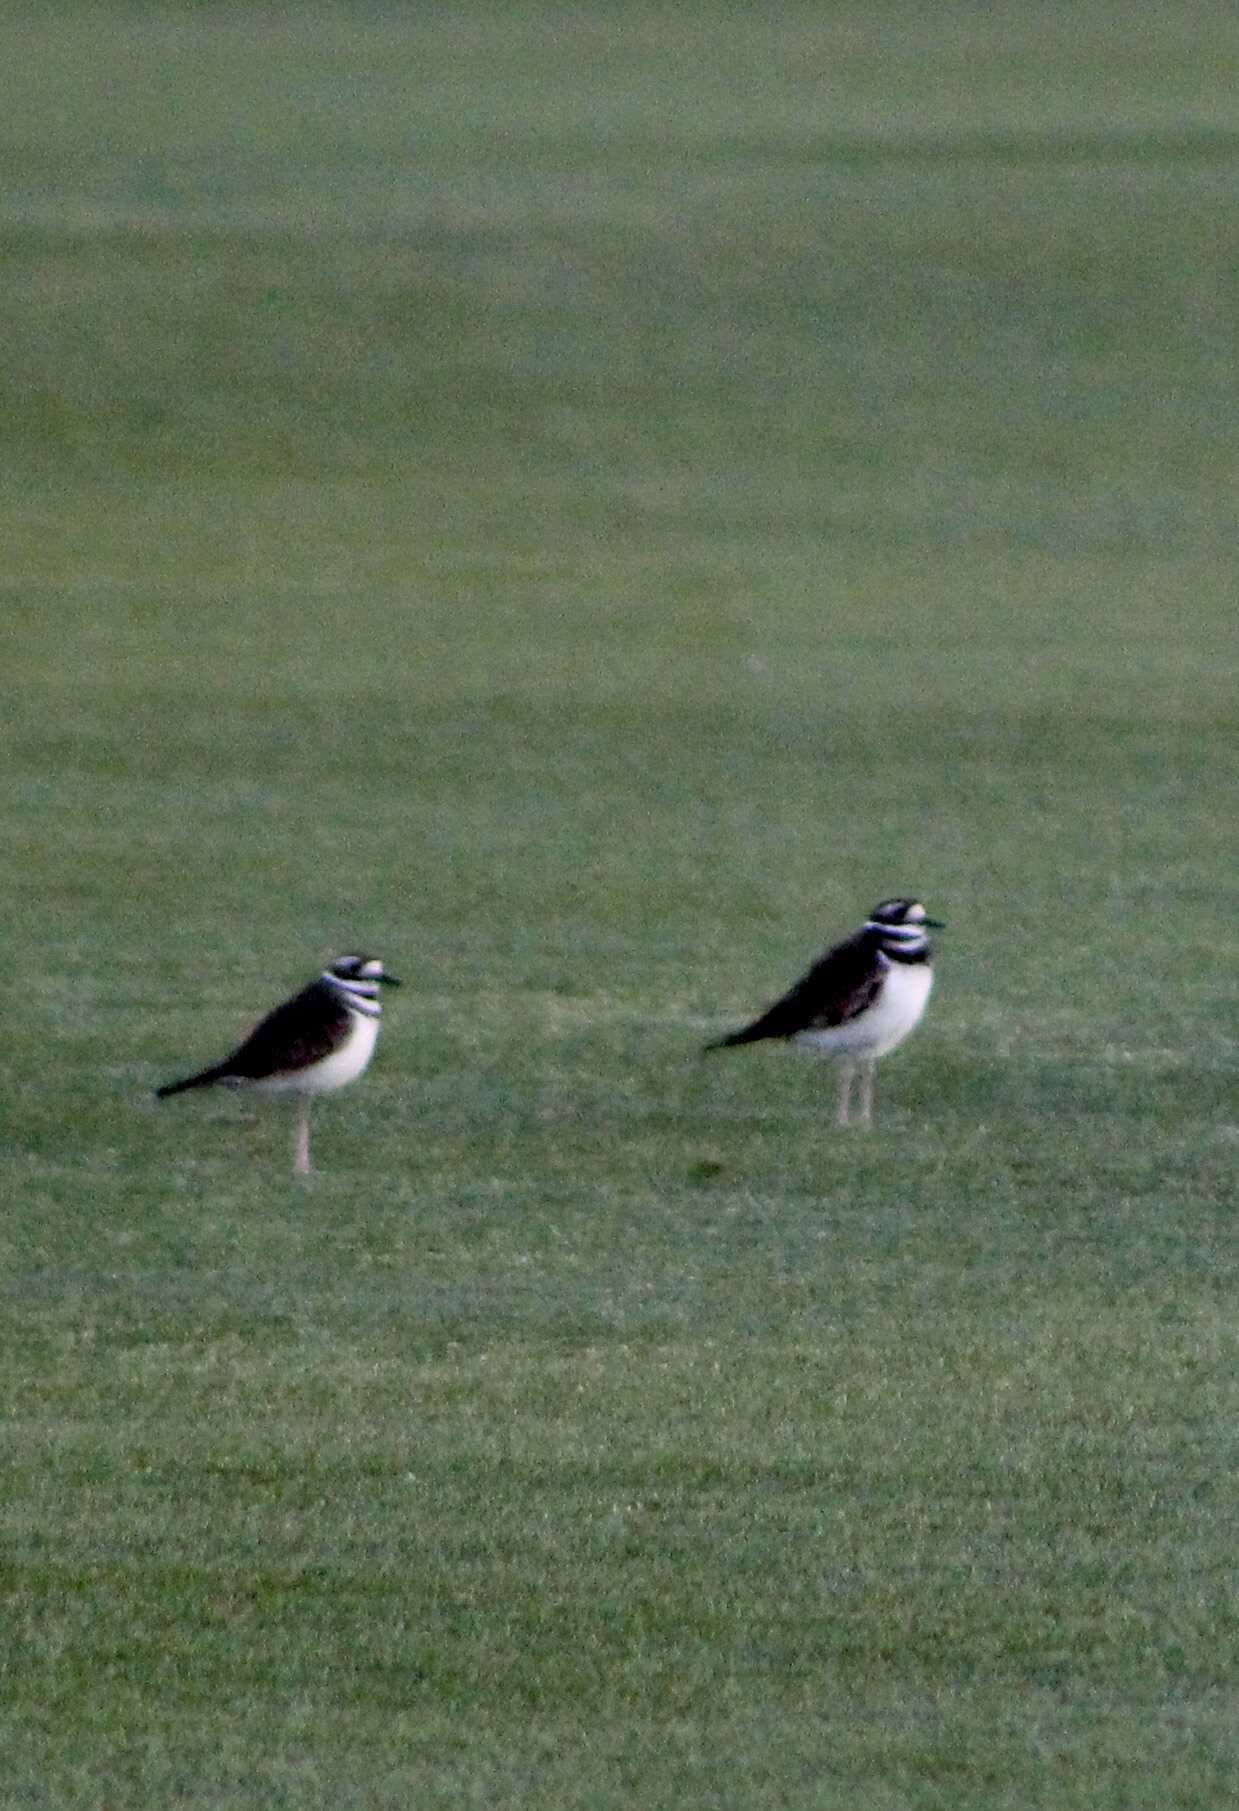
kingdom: Animalia
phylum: Chordata
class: Aves
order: Charadriiformes
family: Charadriidae
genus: Charadrius
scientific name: Charadrius vociferus
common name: Killdeer
